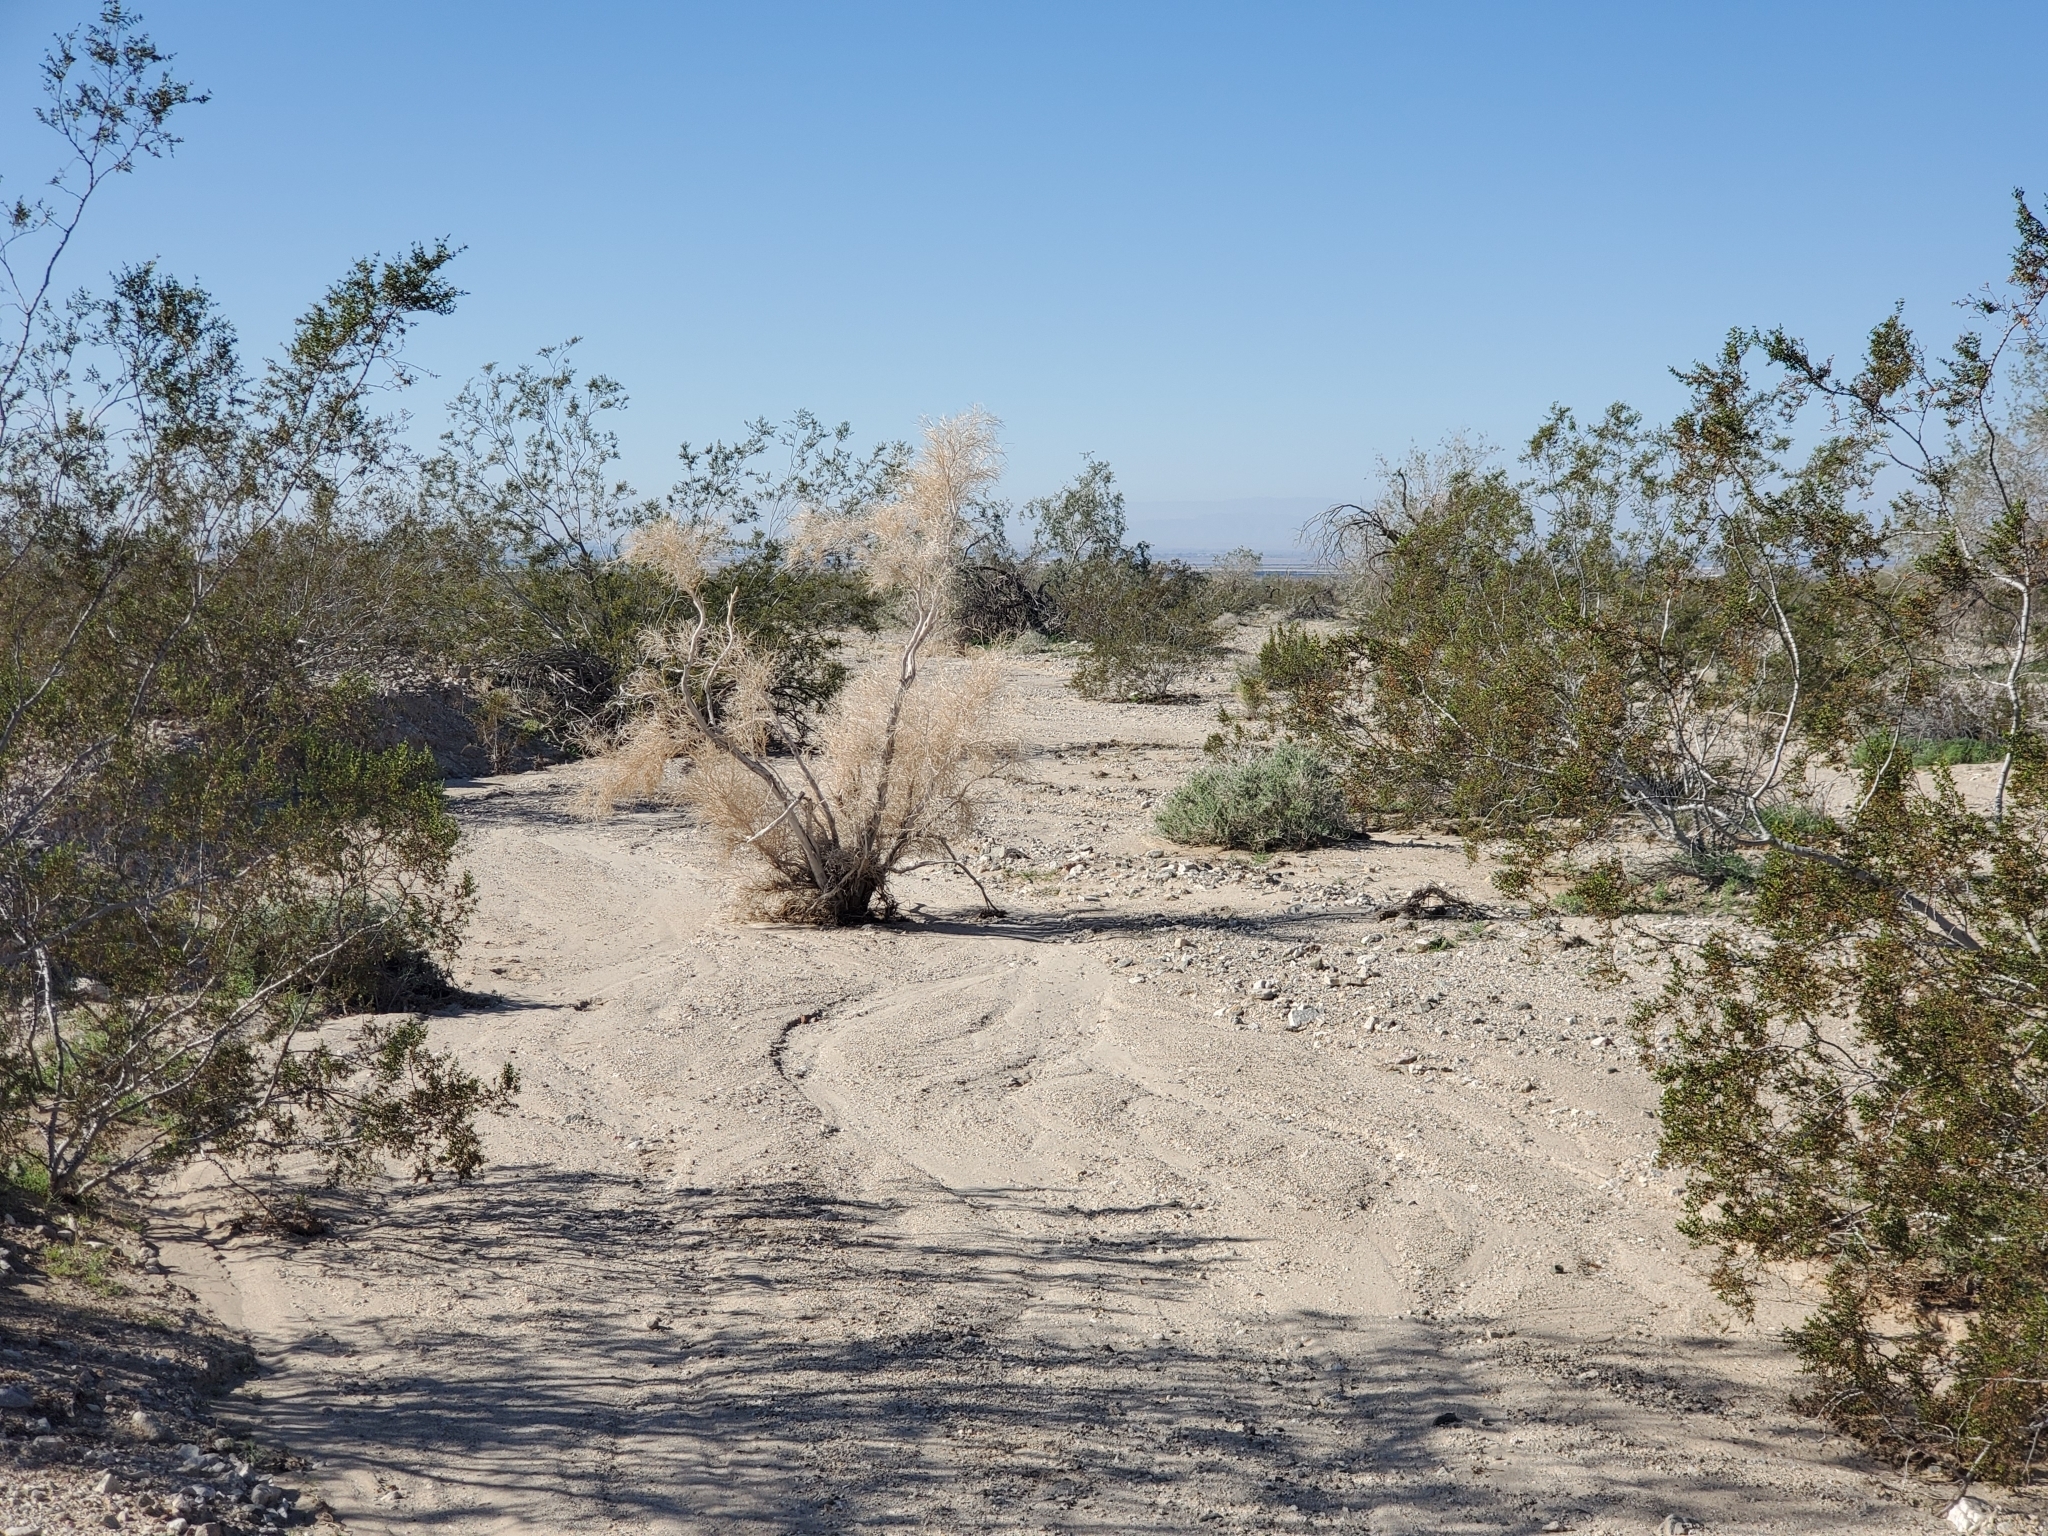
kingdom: Plantae
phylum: Tracheophyta
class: Magnoliopsida
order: Fabales
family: Fabaceae
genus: Psorothamnus
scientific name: Psorothamnus spinosus
